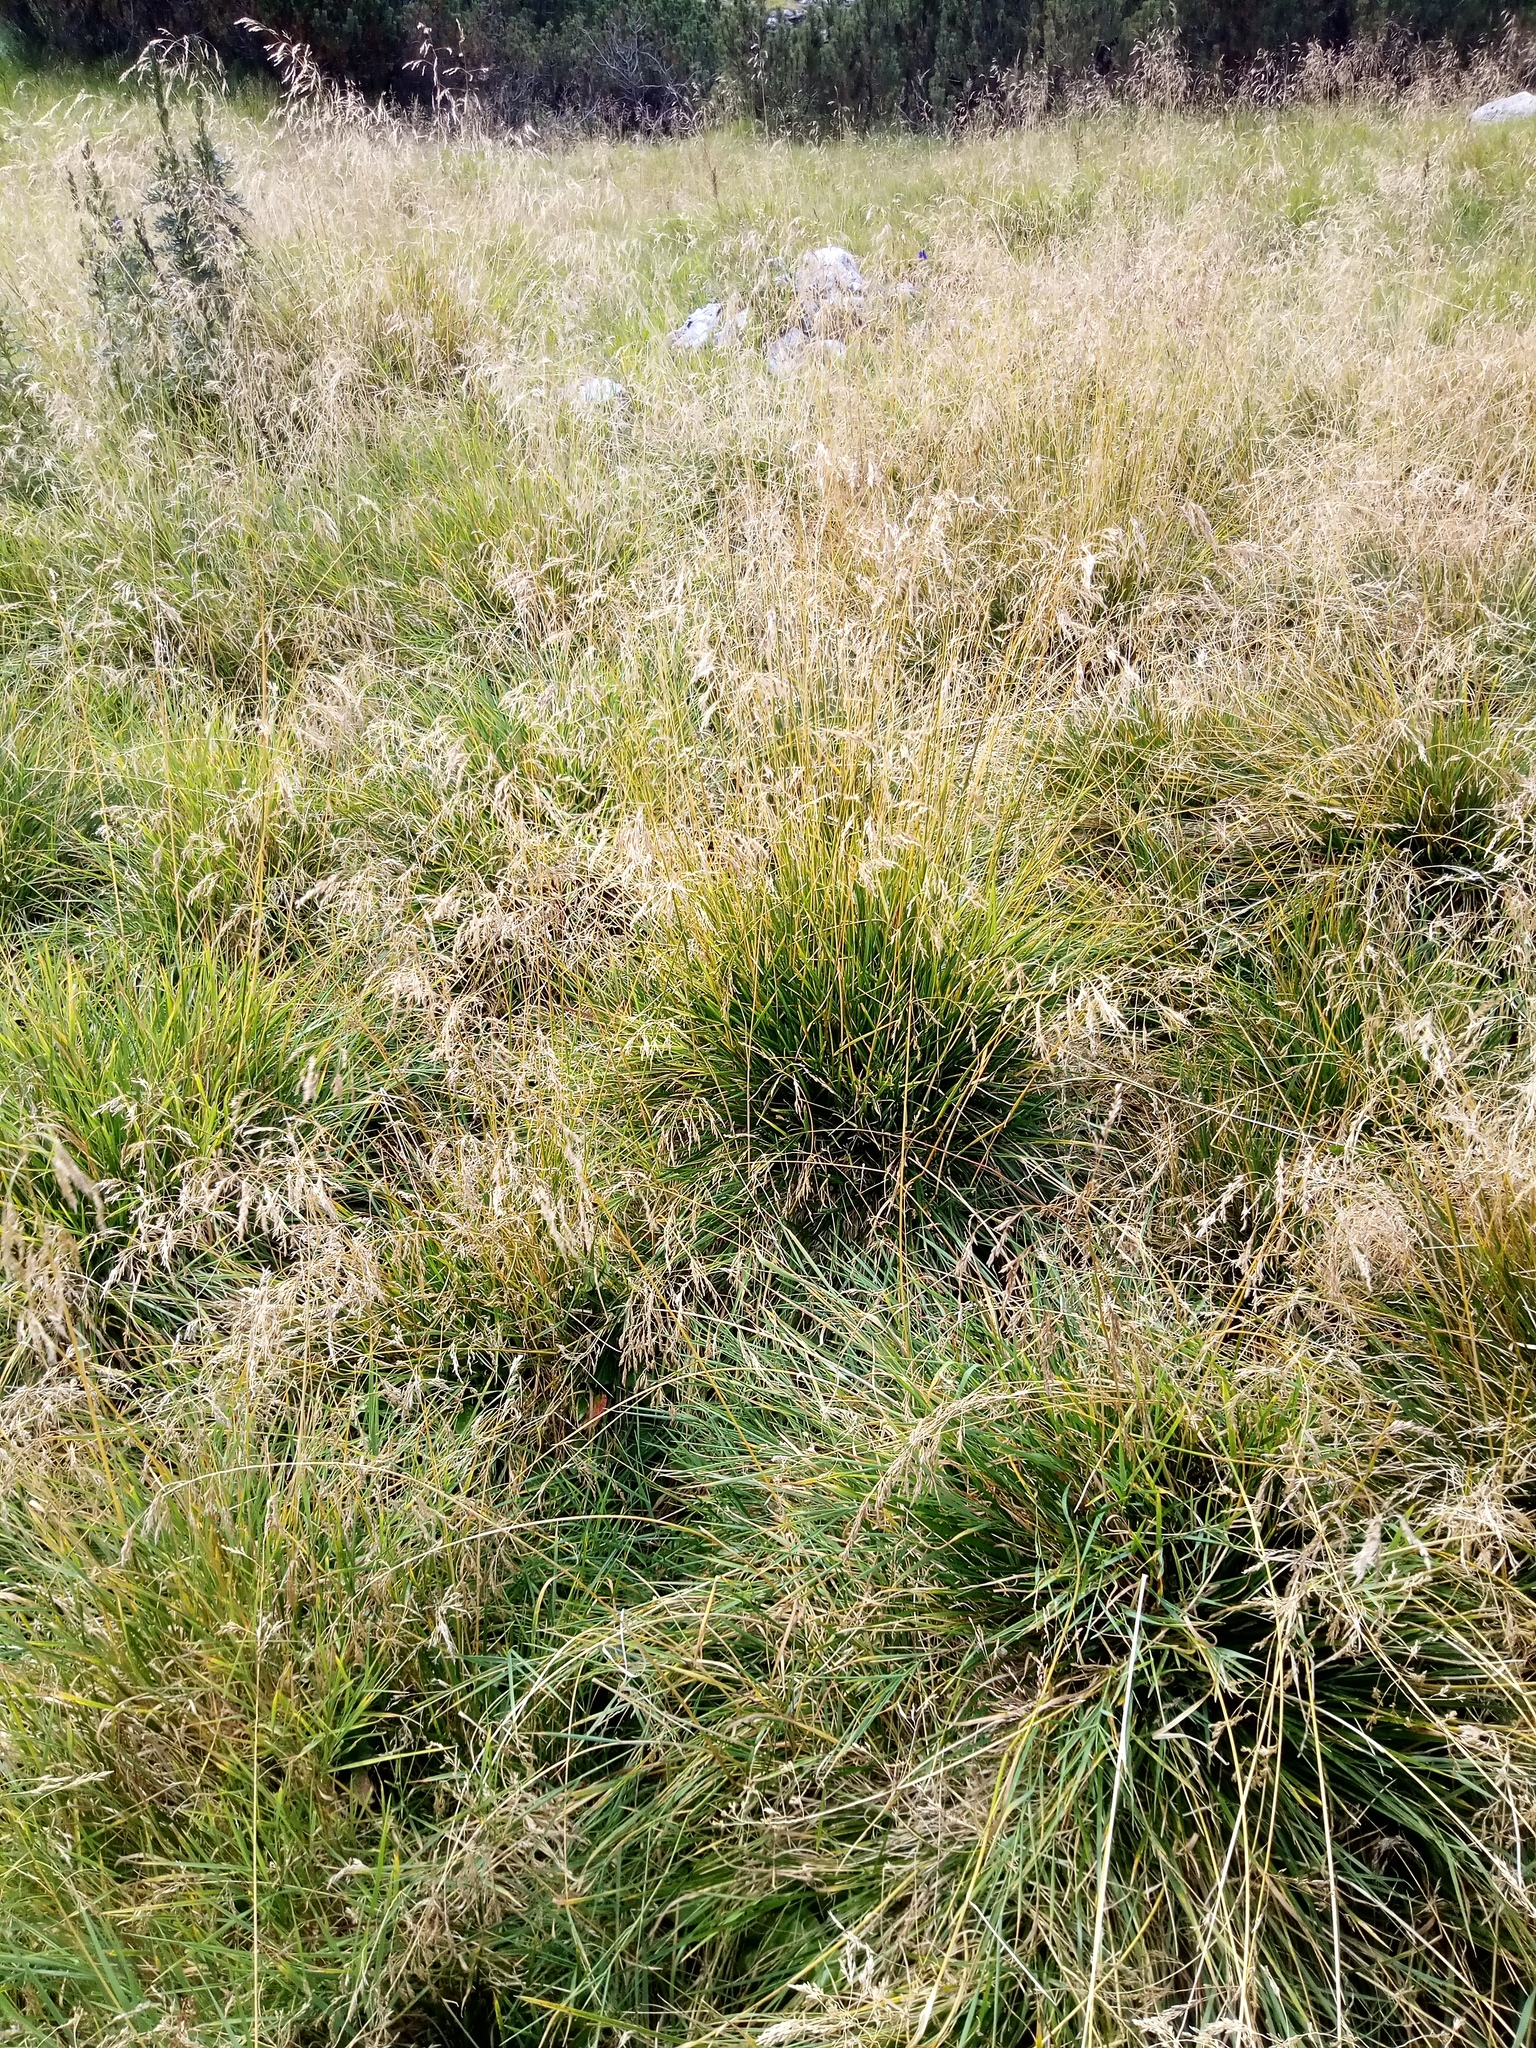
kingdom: Plantae
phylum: Tracheophyta
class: Liliopsida
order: Poales
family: Poaceae
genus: Deschampsia
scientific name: Deschampsia cespitosa
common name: Tufted hair-grass
